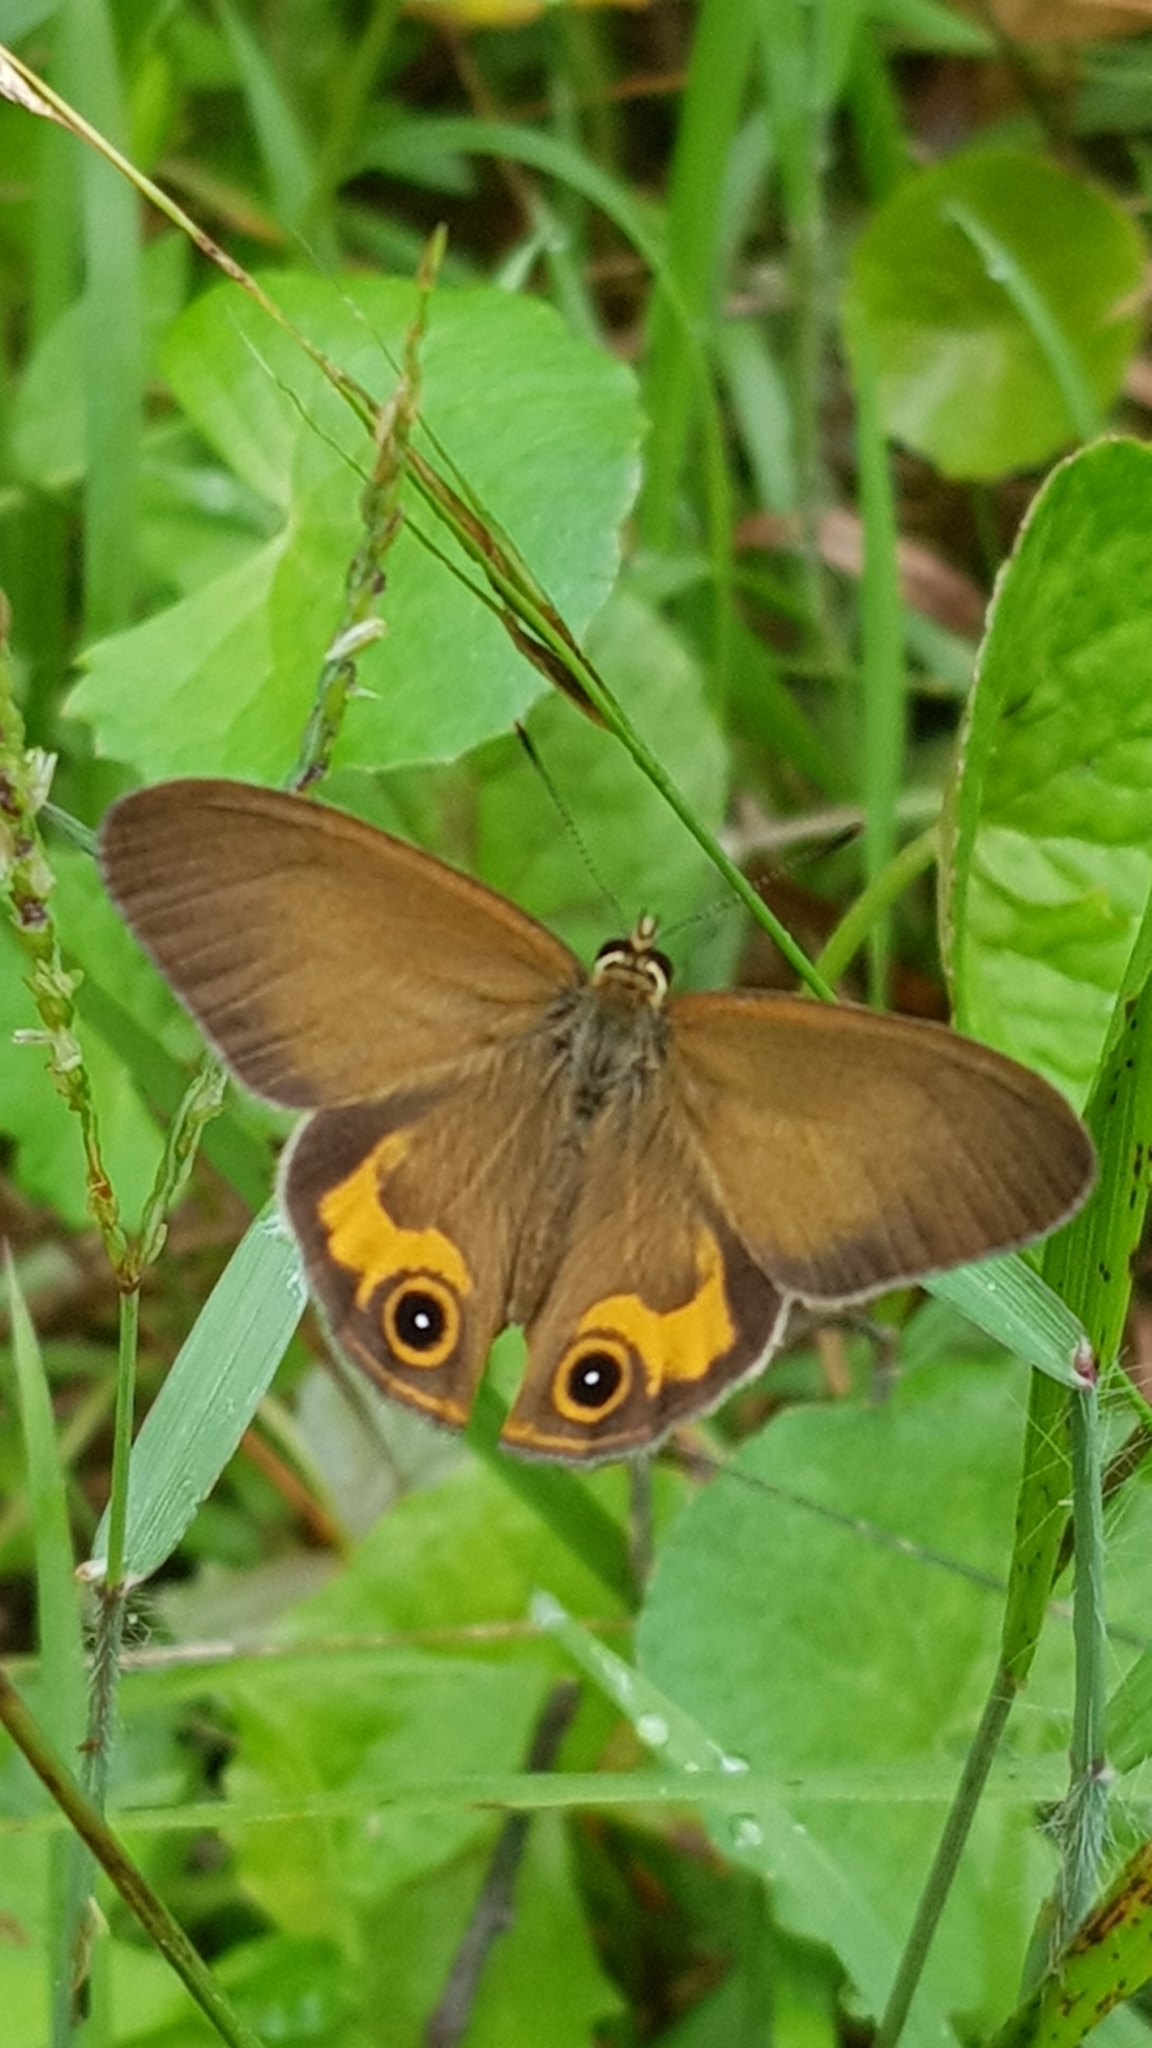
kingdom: Animalia
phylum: Arthropoda
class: Insecta
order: Lepidoptera
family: Nymphalidae
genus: Hypocysta
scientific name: Hypocysta metirius
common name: Brown ringlet
